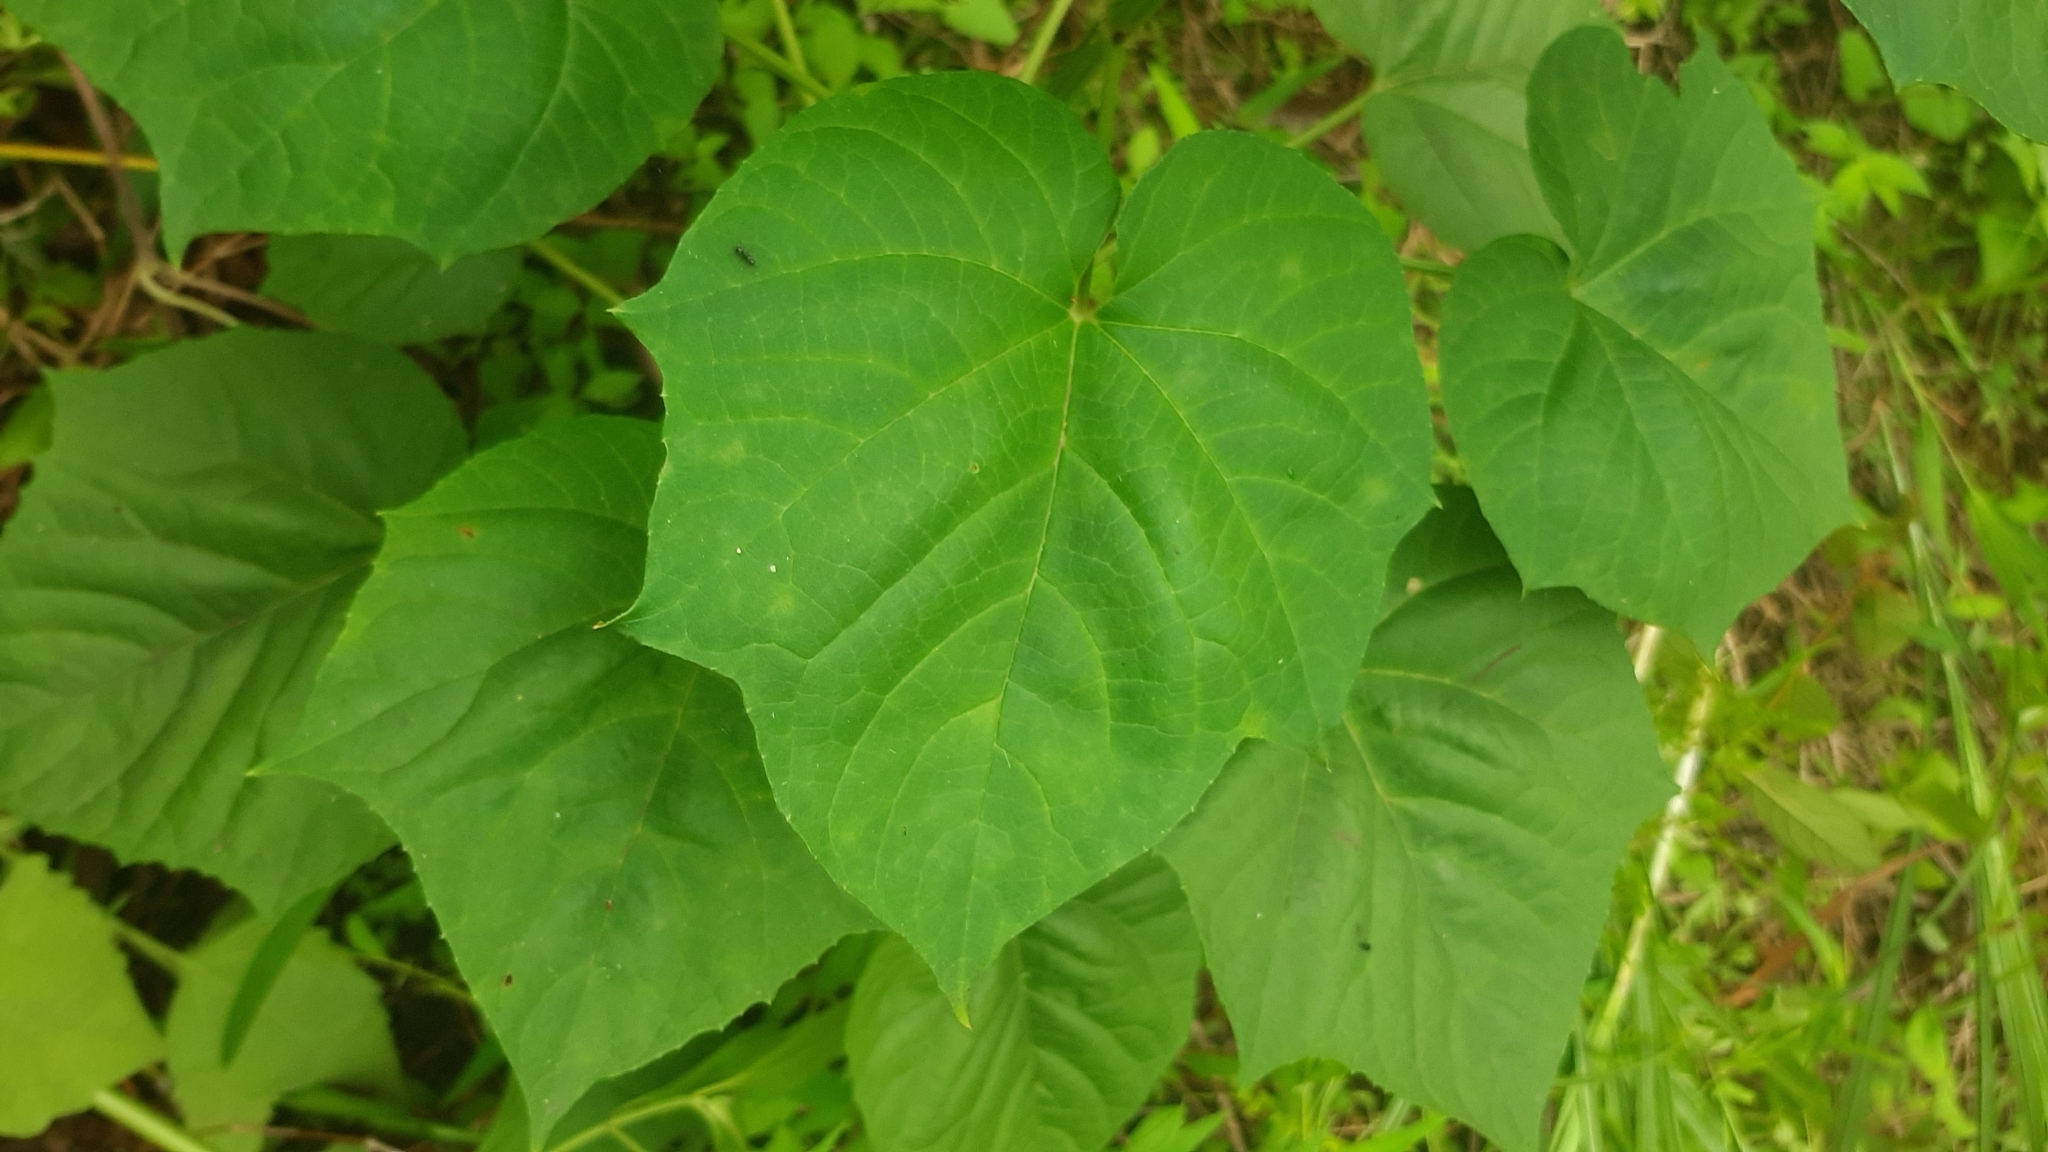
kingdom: Plantae
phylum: Tracheophyta
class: Magnoliopsida
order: Lamiales
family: Lamiaceae
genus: Clerodendrum
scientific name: Clerodendrum japonicum
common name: Japanese glorybower
